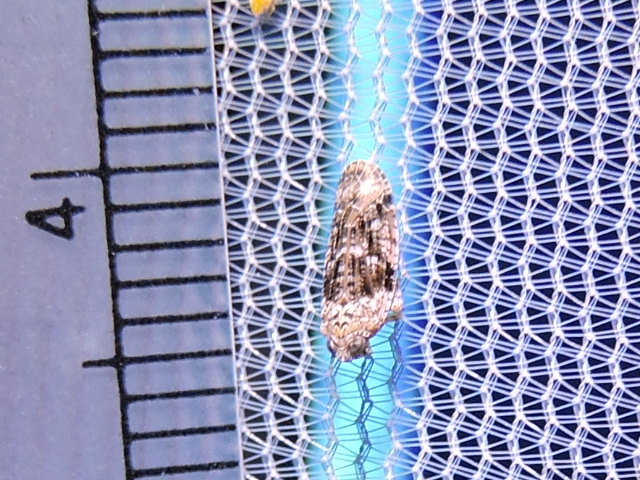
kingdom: Animalia
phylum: Arthropoda
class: Insecta
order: Hemiptera
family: Achilidae
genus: Catonia
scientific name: Catonia nava
